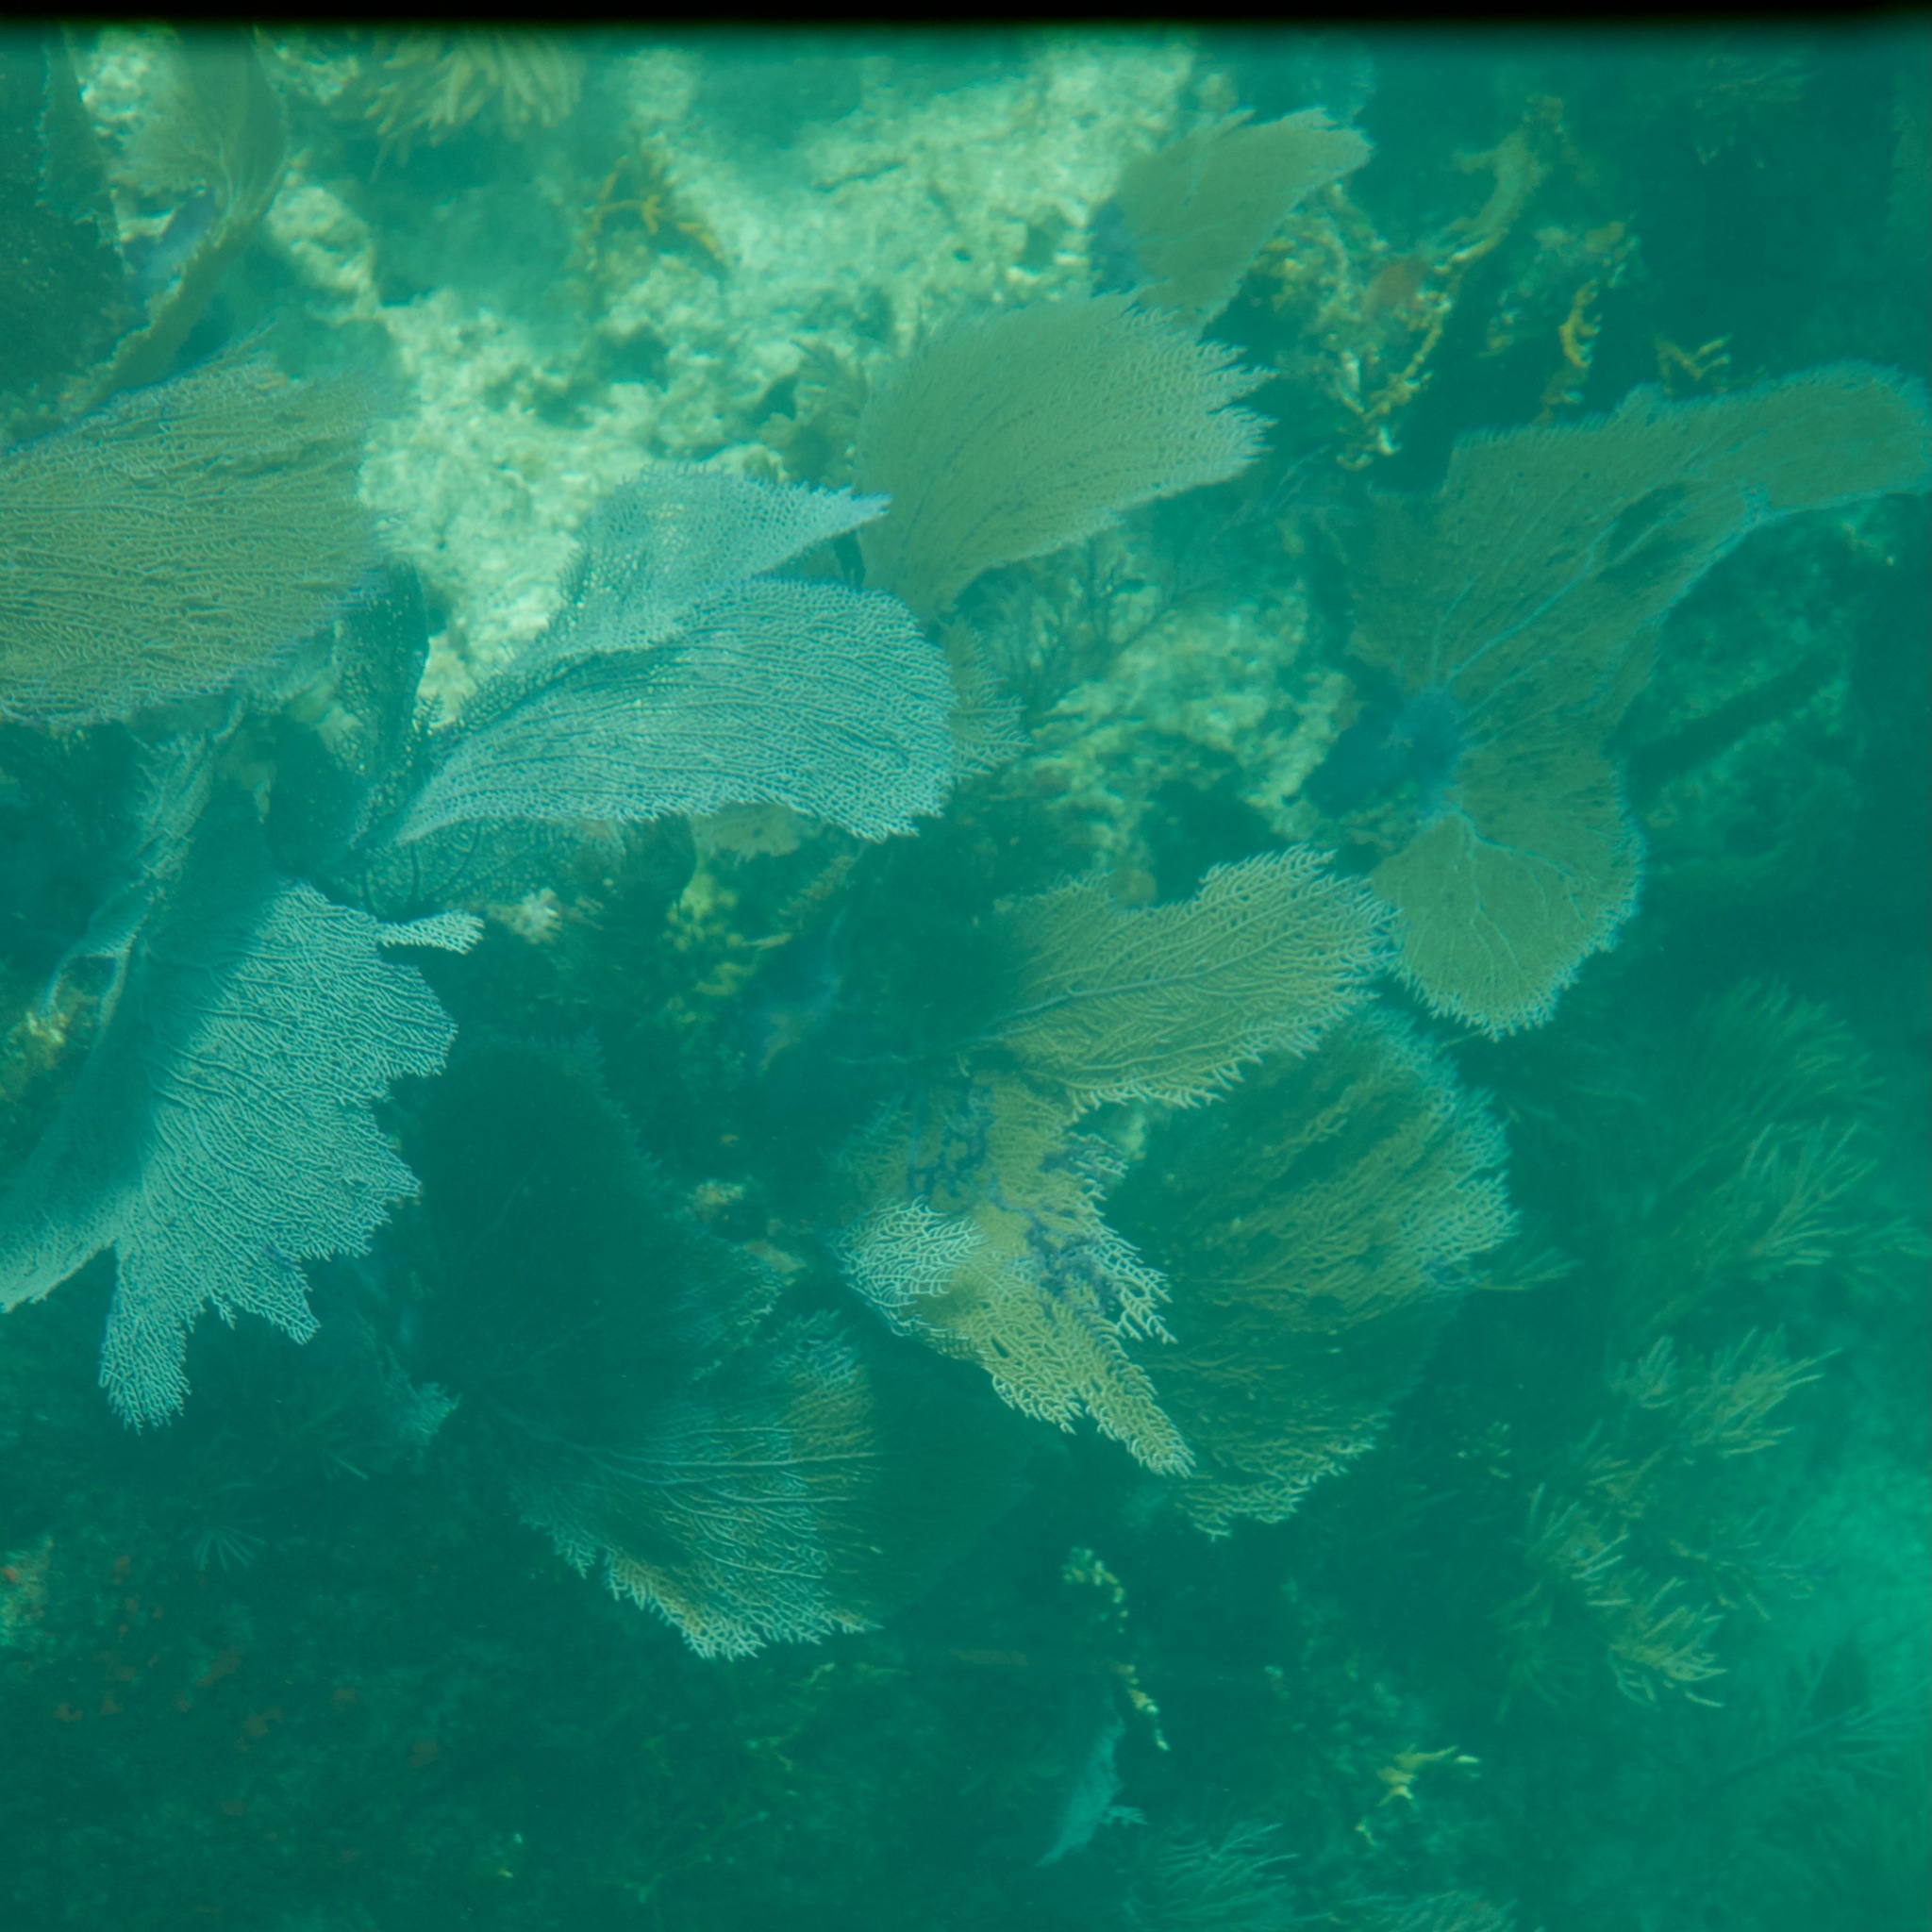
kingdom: Animalia
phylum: Cnidaria
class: Anthozoa
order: Malacalcyonacea
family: Gorgoniidae
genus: Gorgonia
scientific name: Gorgonia ventalina
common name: Common sea fan
